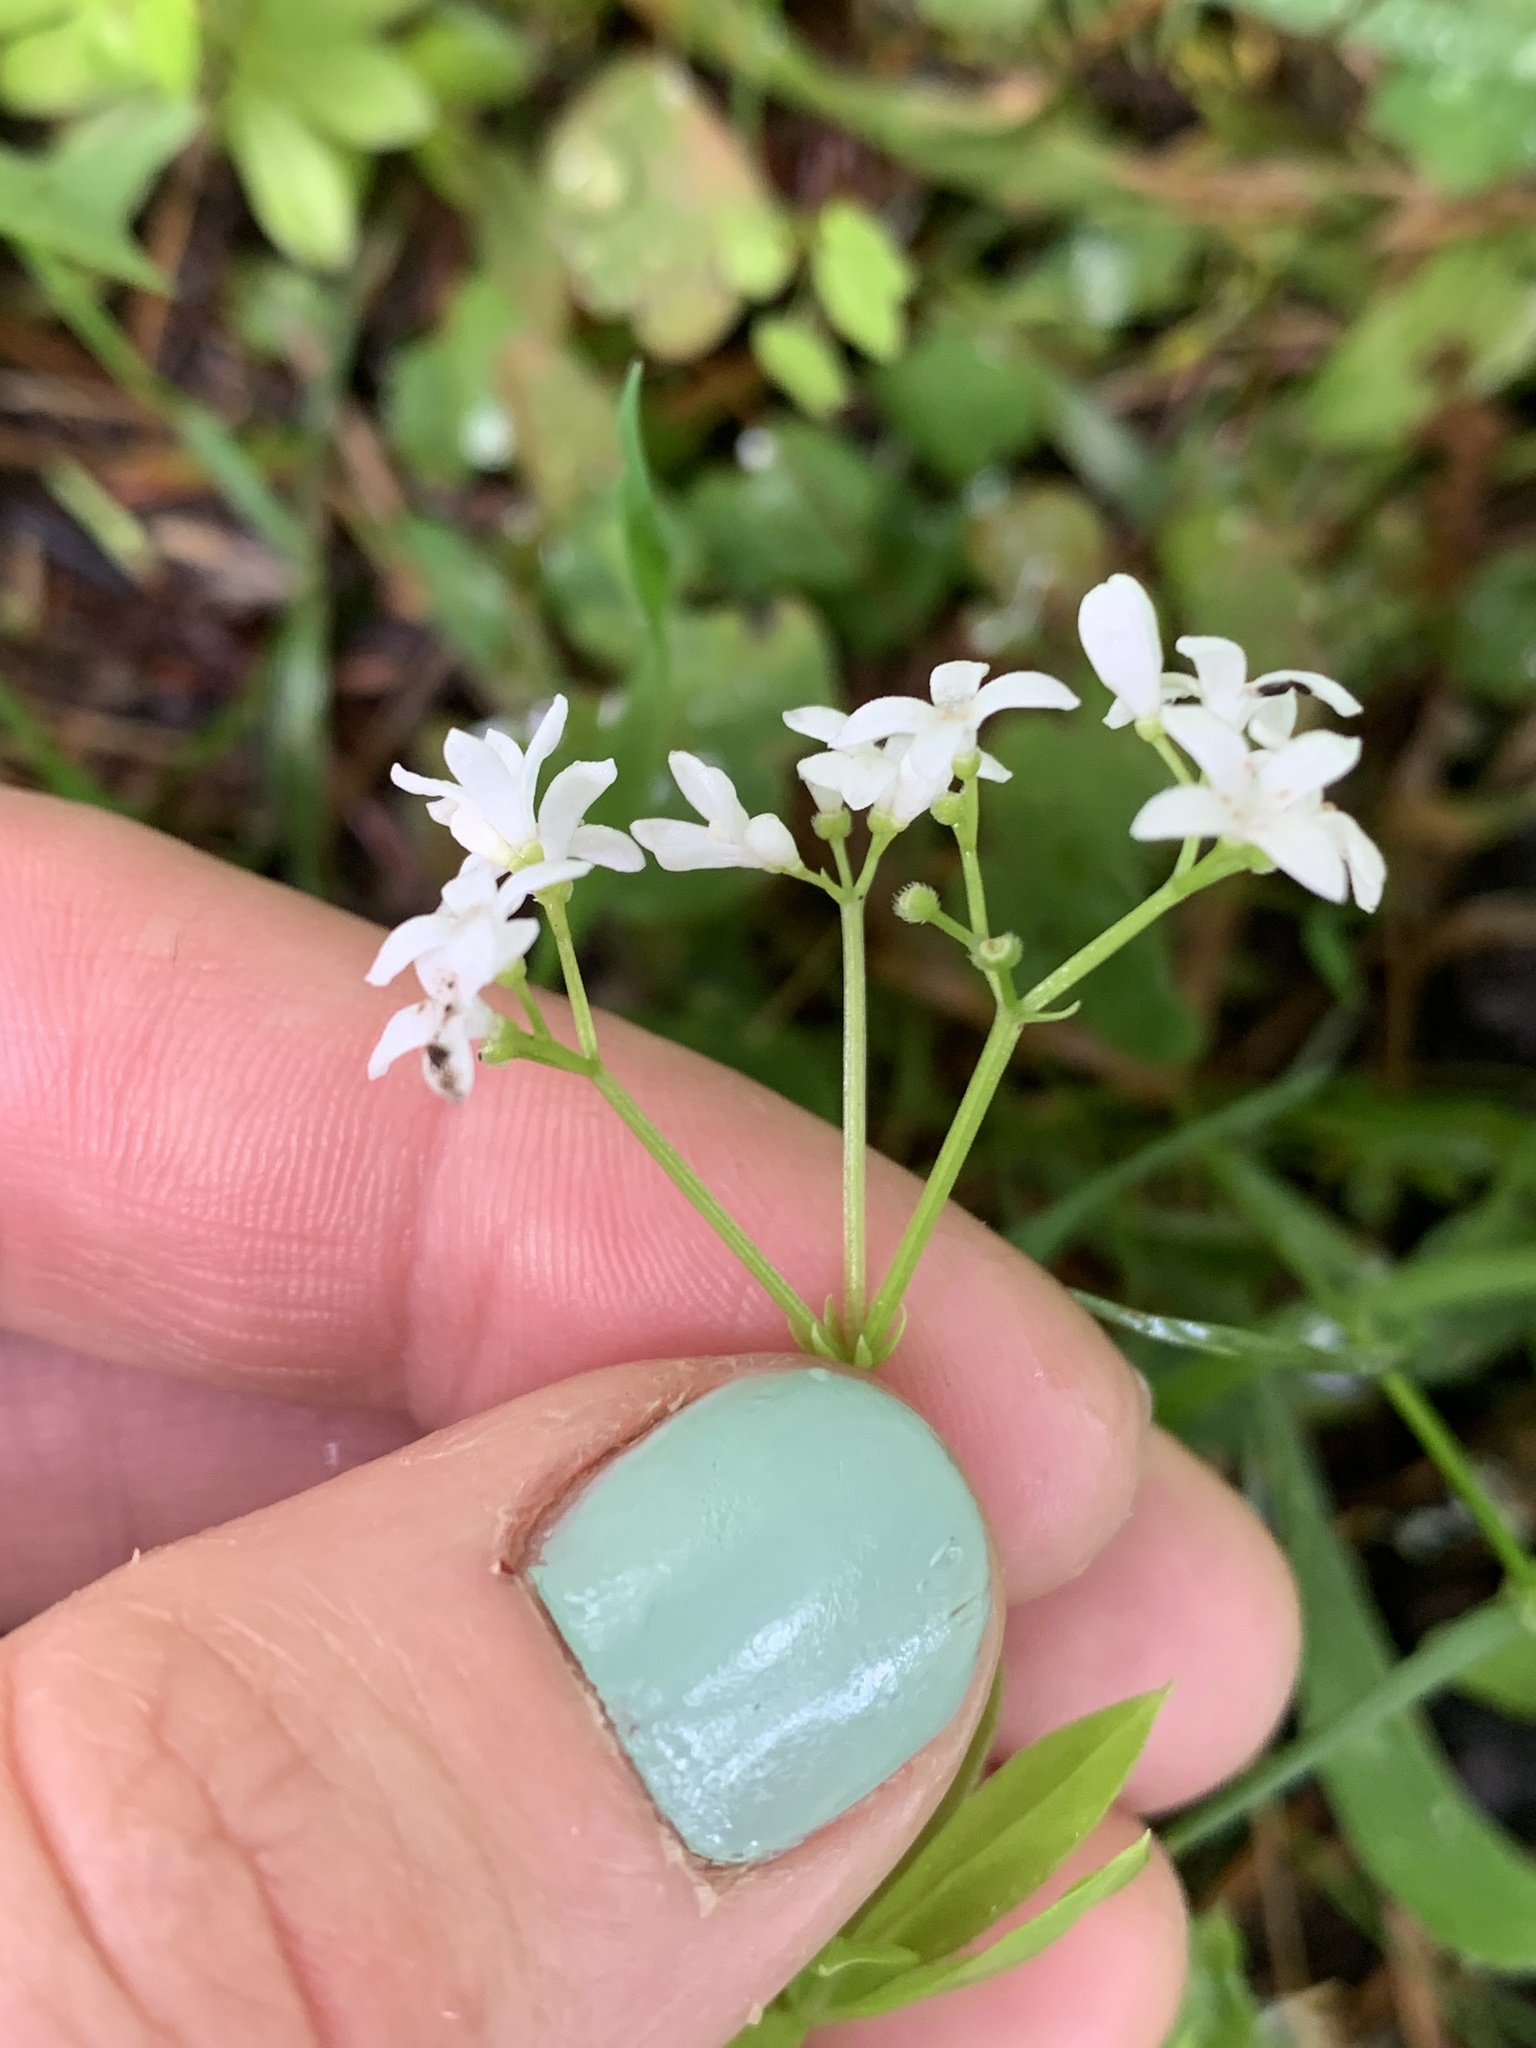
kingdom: Plantae
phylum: Tracheophyta
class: Magnoliopsida
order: Gentianales
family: Rubiaceae
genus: Galium
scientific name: Galium odoratum
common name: Sweet woodruff
